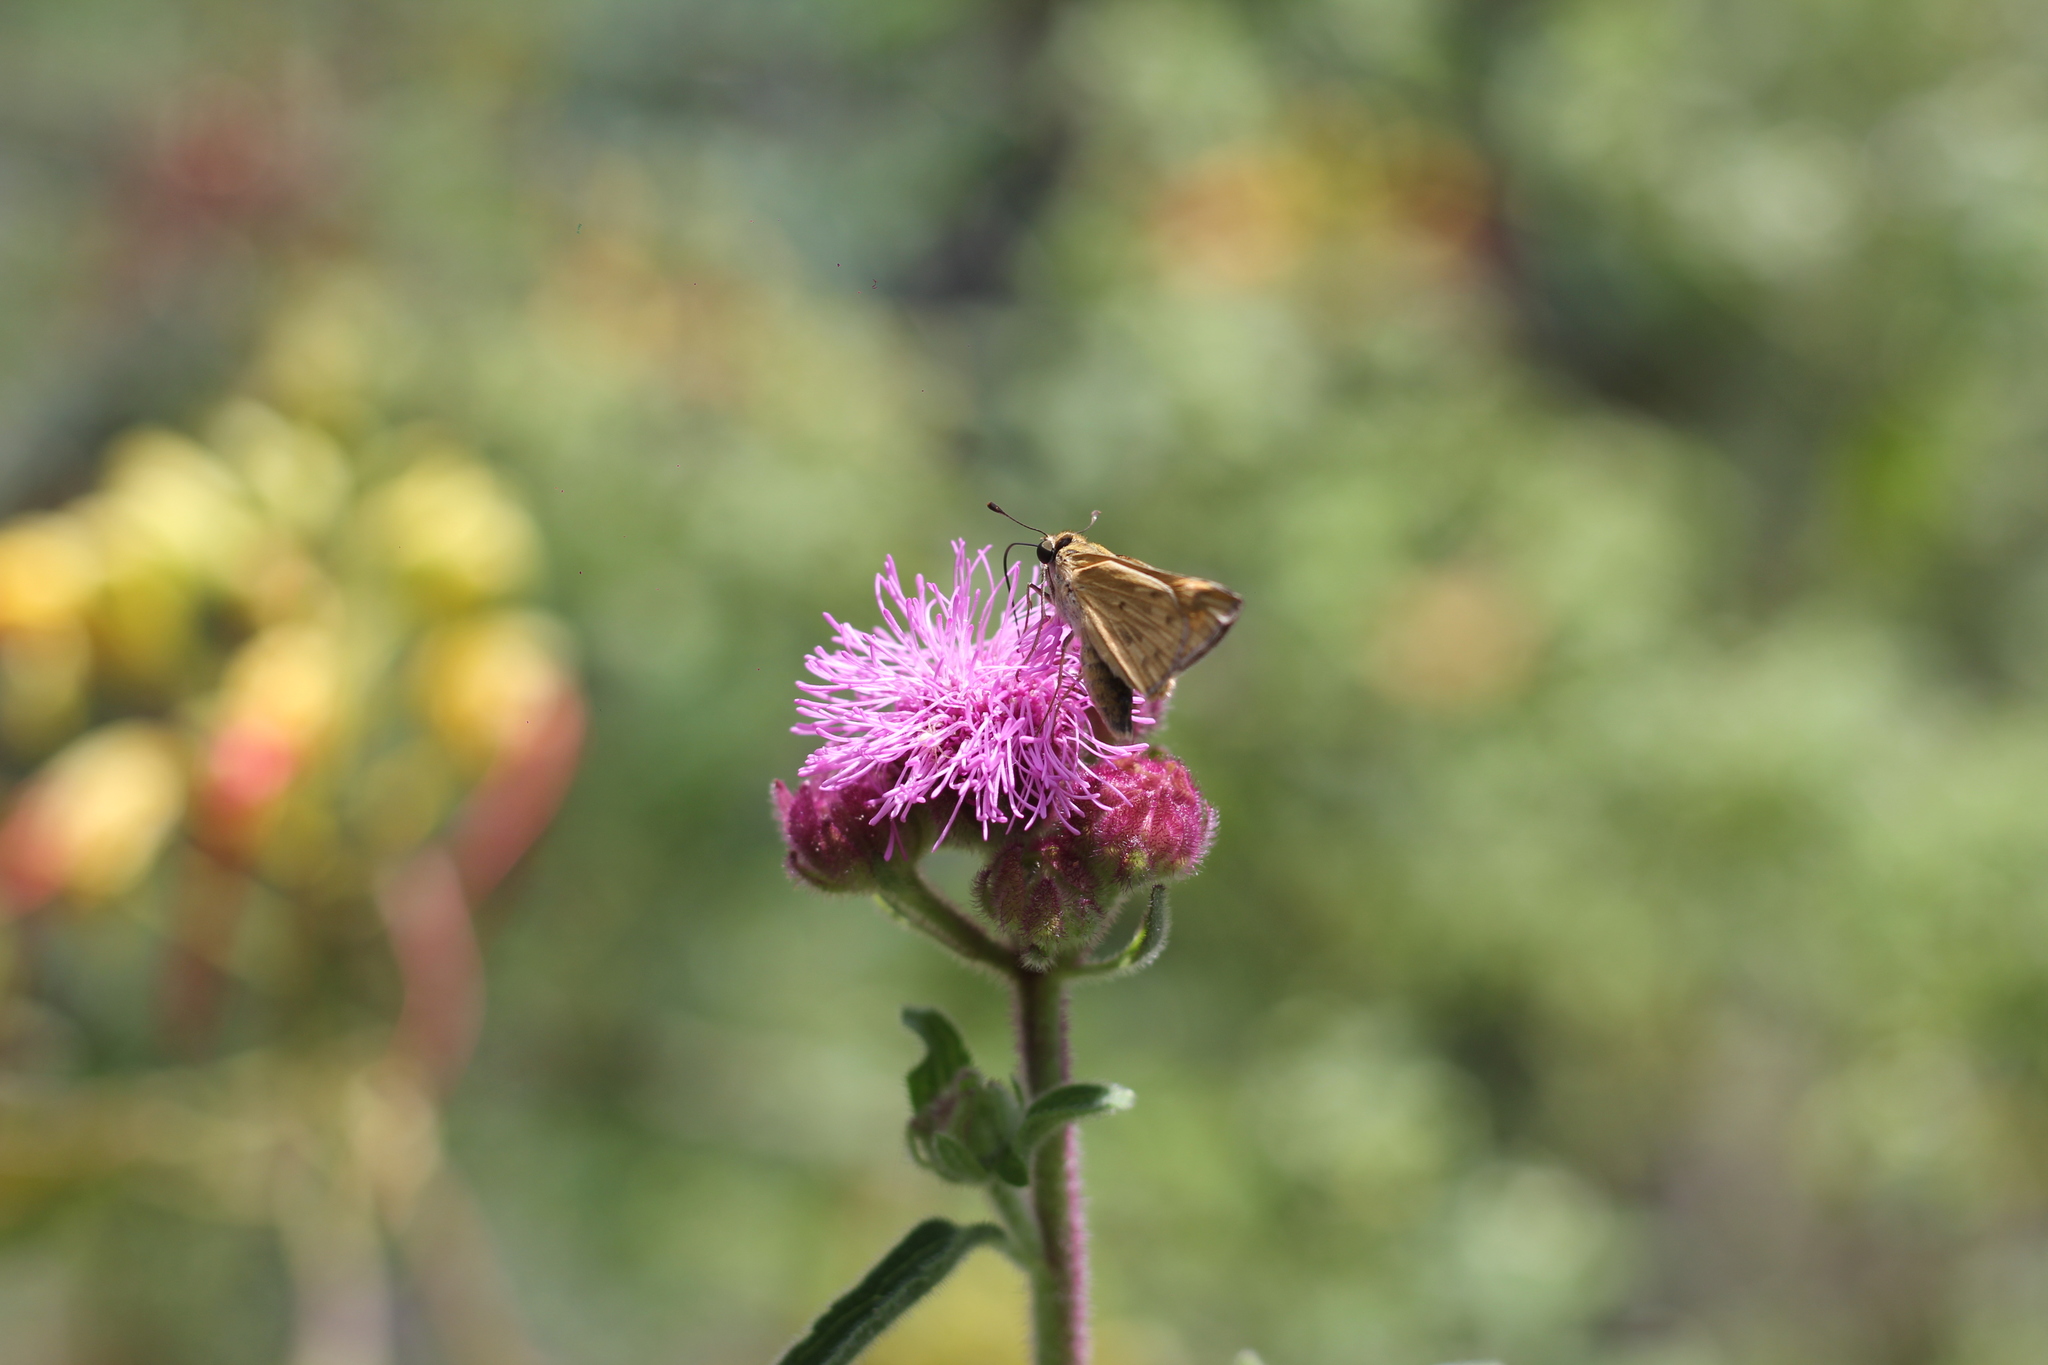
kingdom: Animalia
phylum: Arthropoda
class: Insecta
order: Lepidoptera
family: Hesperiidae
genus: Hylephila
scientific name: Hylephila phyleus
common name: Fiery skipper
